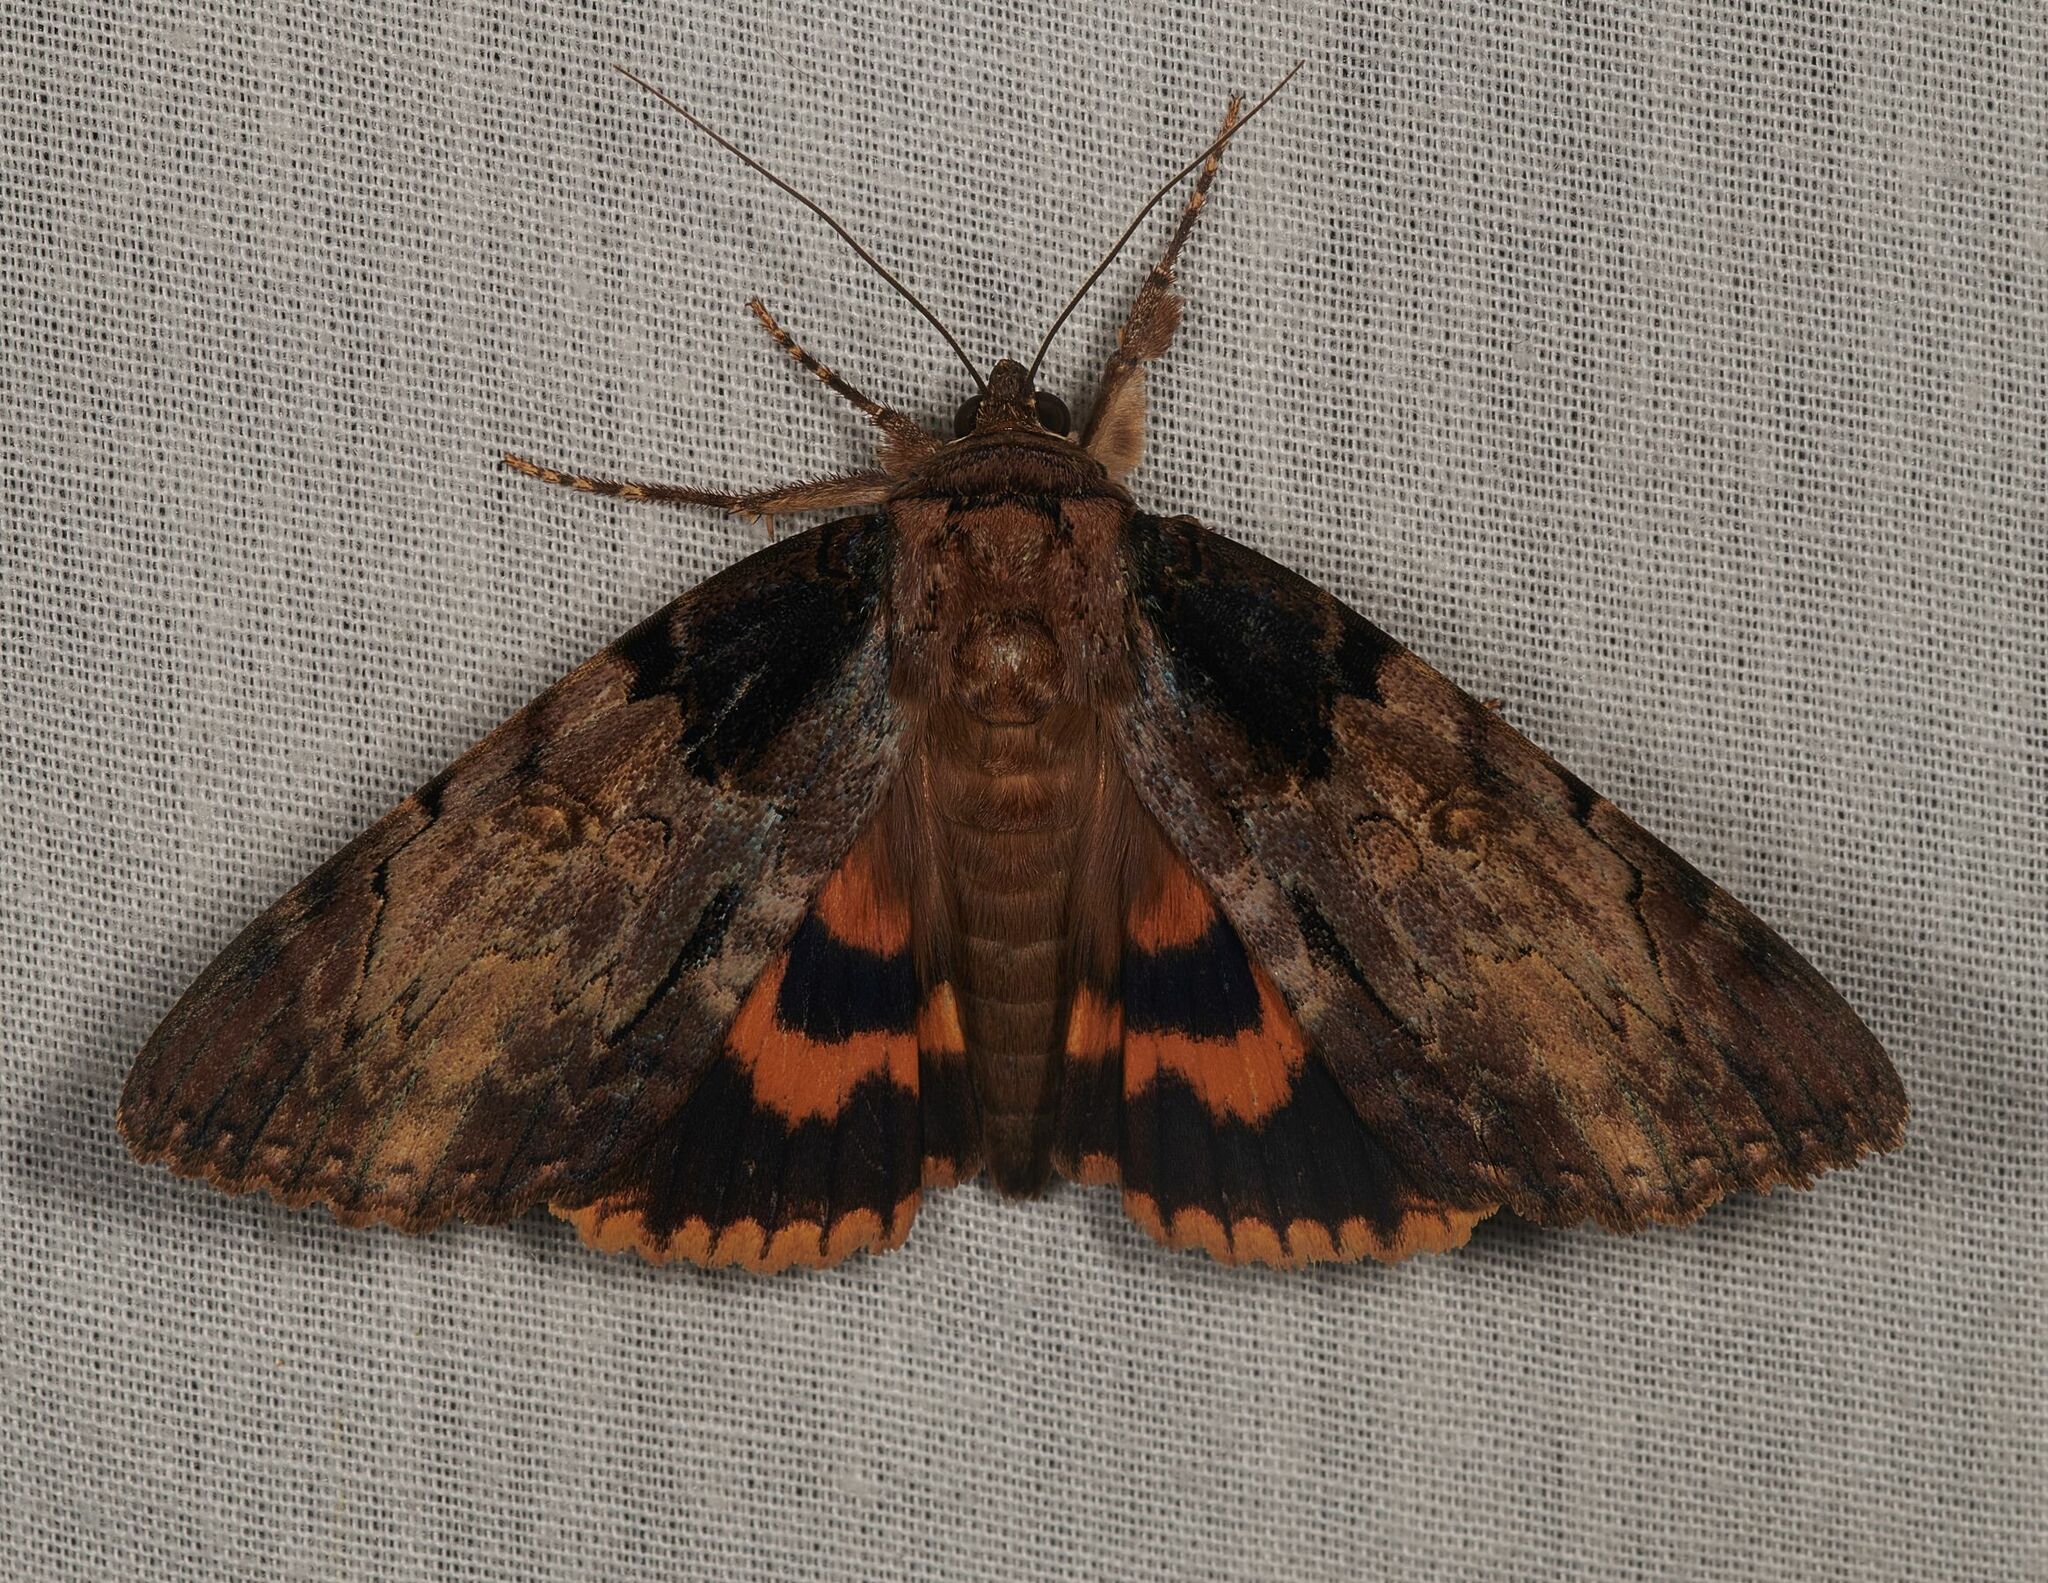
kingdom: Animalia
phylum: Arthropoda
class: Insecta
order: Lepidoptera
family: Erebidae
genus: Catocala
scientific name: Catocala nebulosa
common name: Clouded underwing
